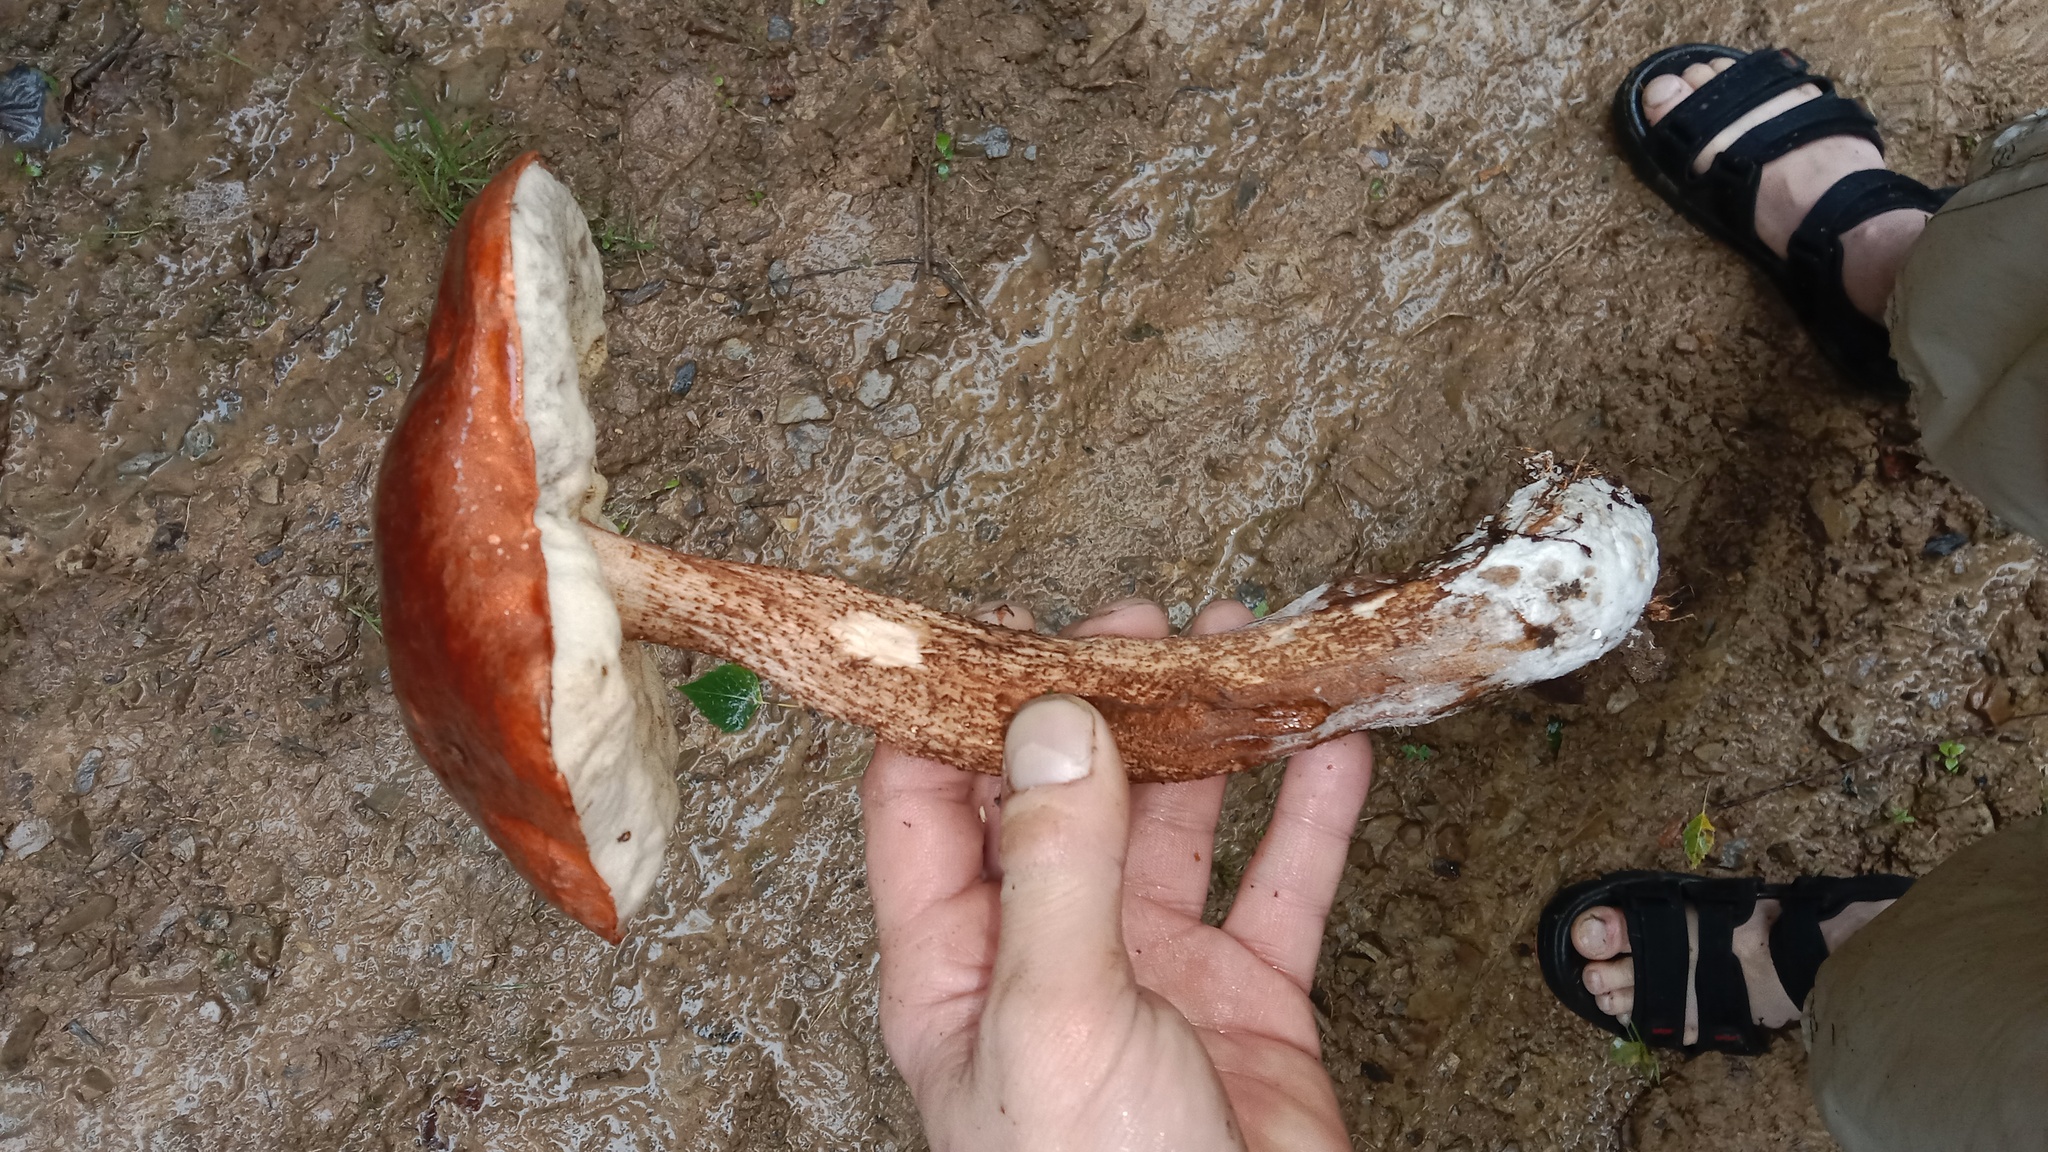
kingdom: Fungi
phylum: Basidiomycota
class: Agaricomycetes
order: Boletales
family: Boletaceae
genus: Leccinum
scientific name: Leccinum aurantiacum
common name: Orange bolete
